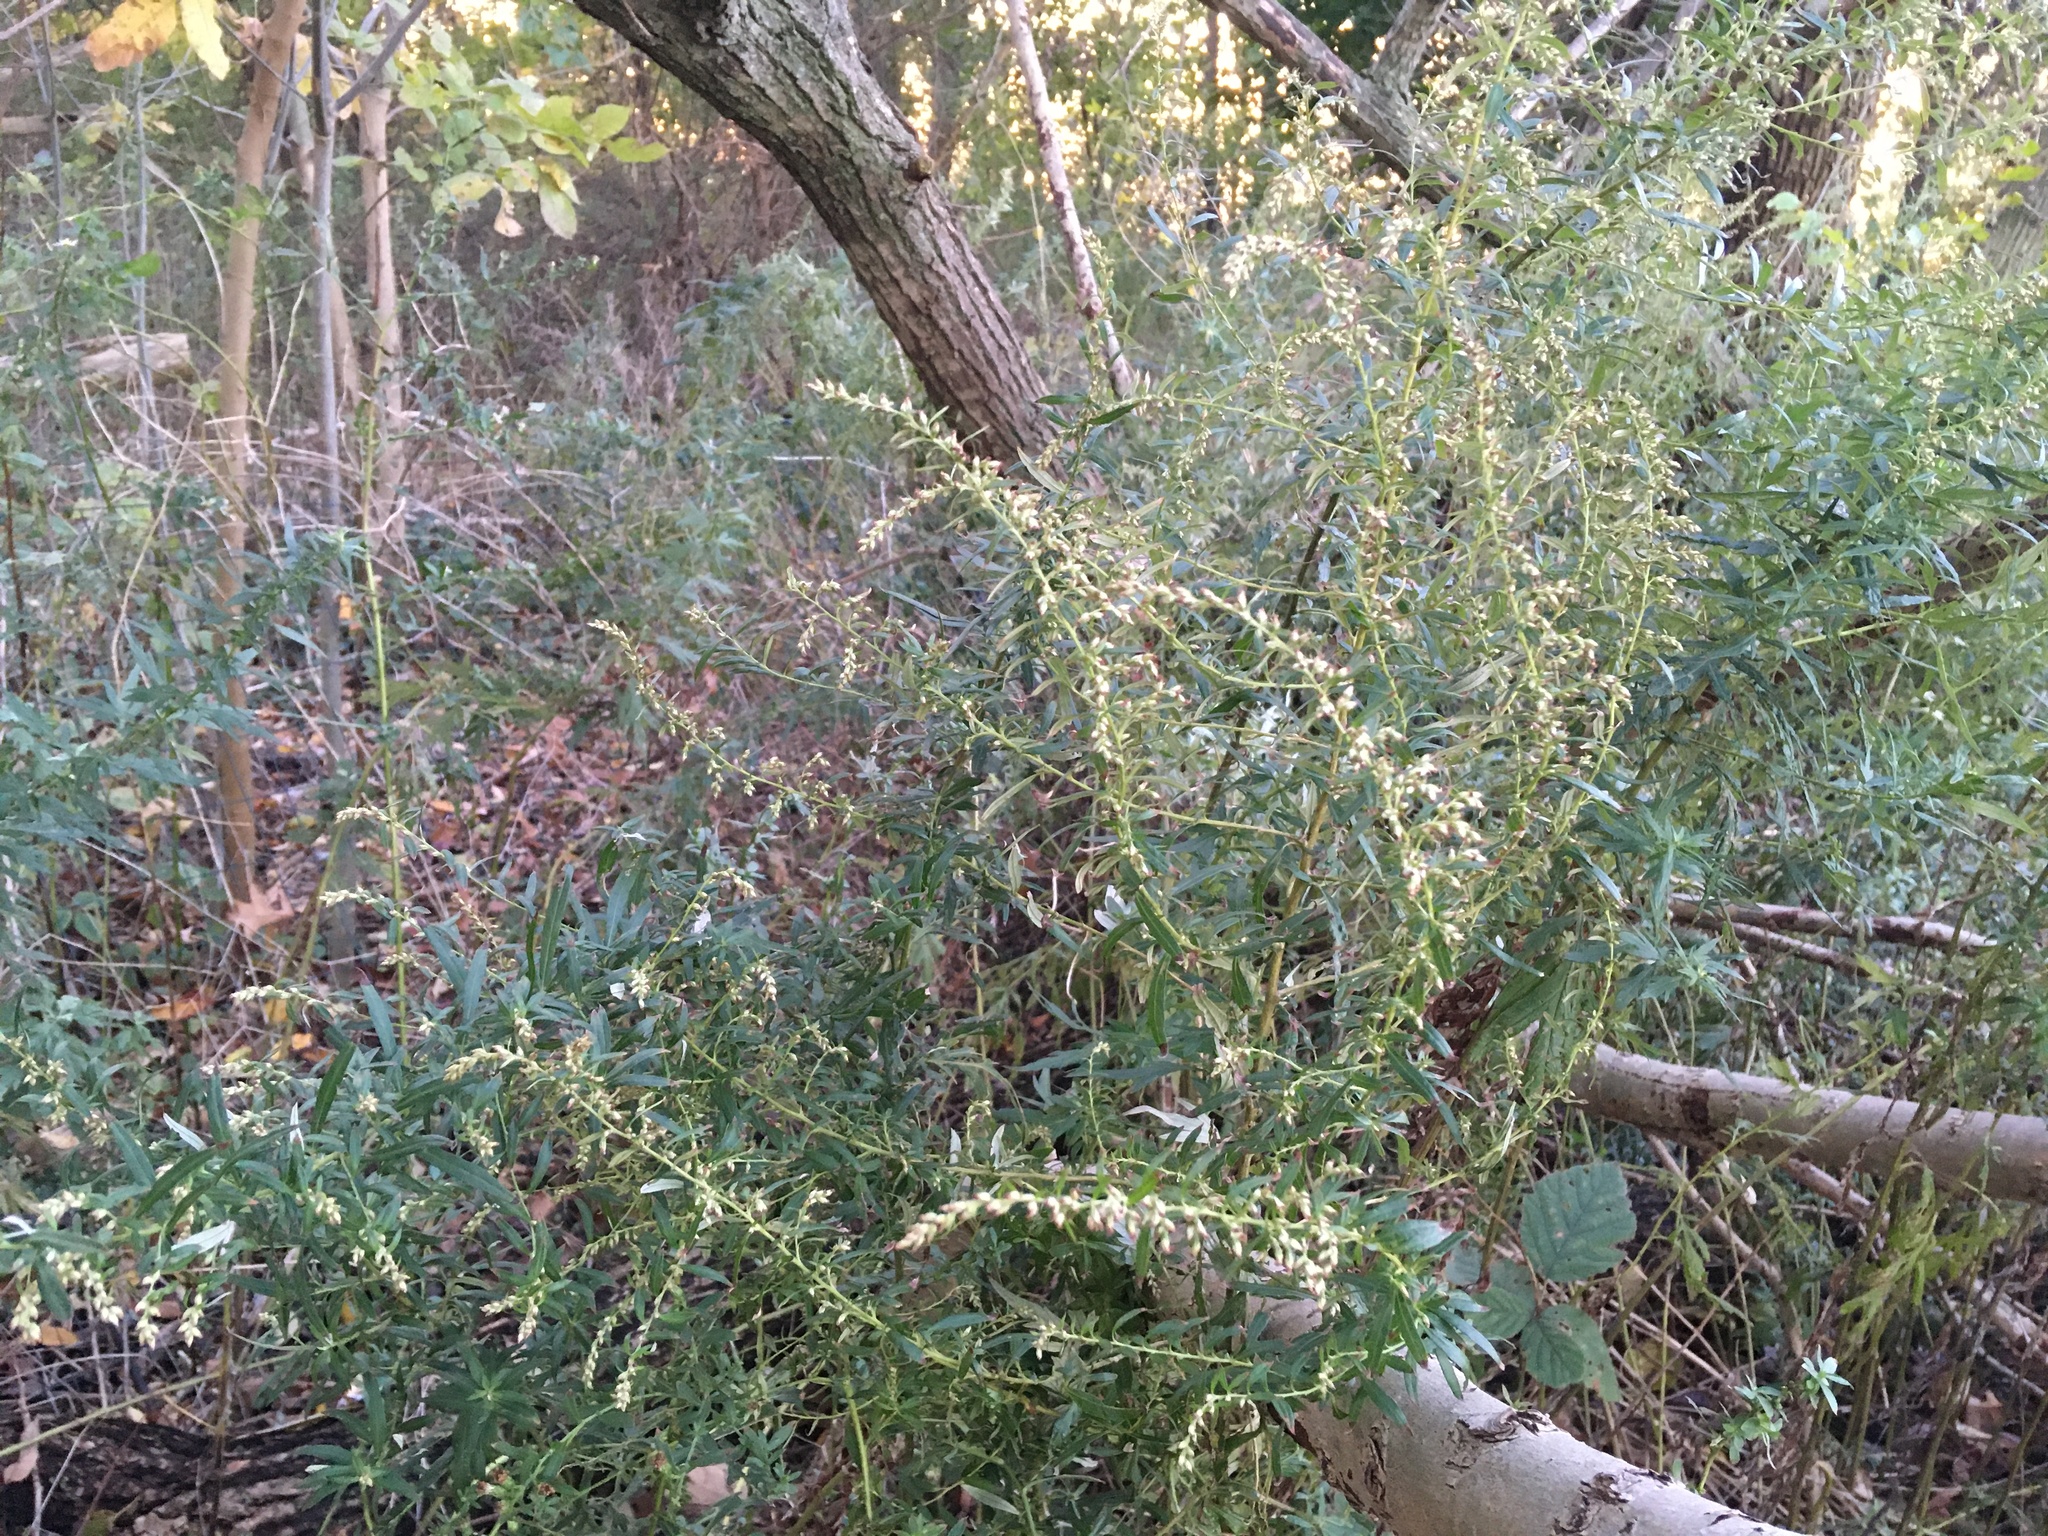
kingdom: Plantae
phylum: Tracheophyta
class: Magnoliopsida
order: Asterales
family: Asteraceae
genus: Artemisia
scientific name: Artemisia vulgaris
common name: Mugwort
